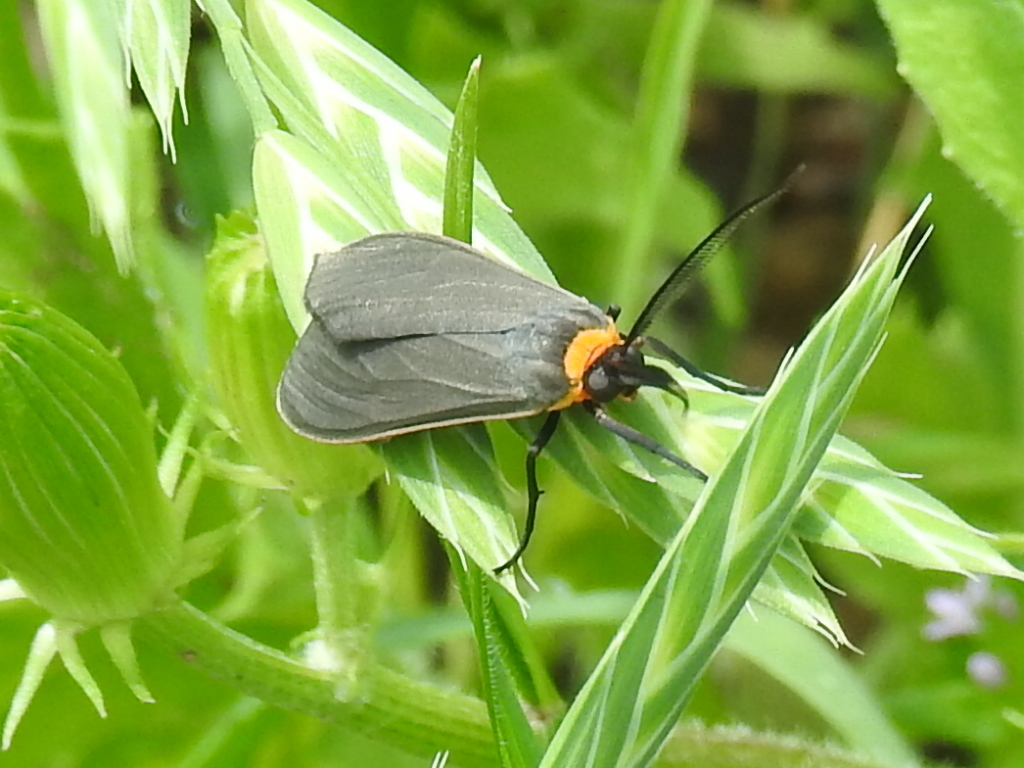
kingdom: Animalia
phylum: Arthropoda
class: Insecta
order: Lepidoptera
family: Erebidae
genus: Cisseps
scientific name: Cisseps fulvicollis
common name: Yellow-collared scape moth
